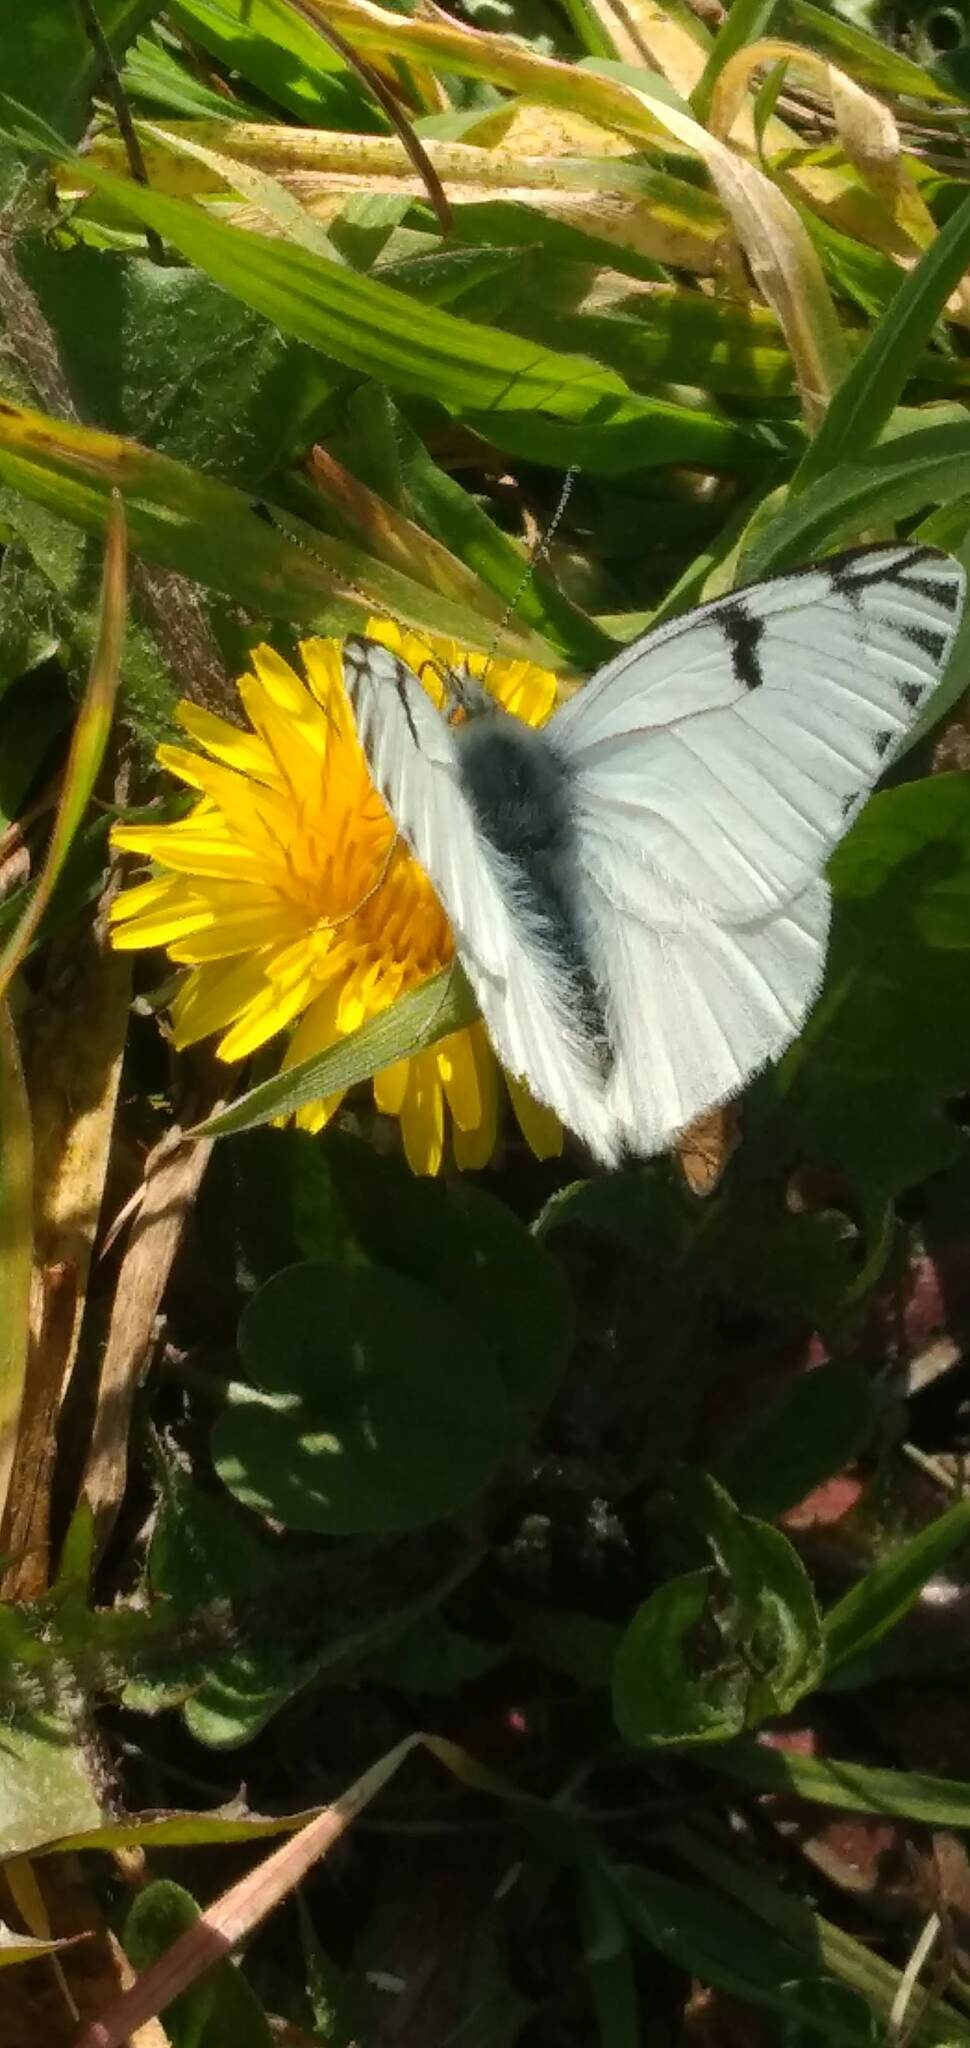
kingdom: Animalia
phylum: Arthropoda
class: Insecta
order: Lepidoptera
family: Pieridae
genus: Tatochila
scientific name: Tatochila autodice
